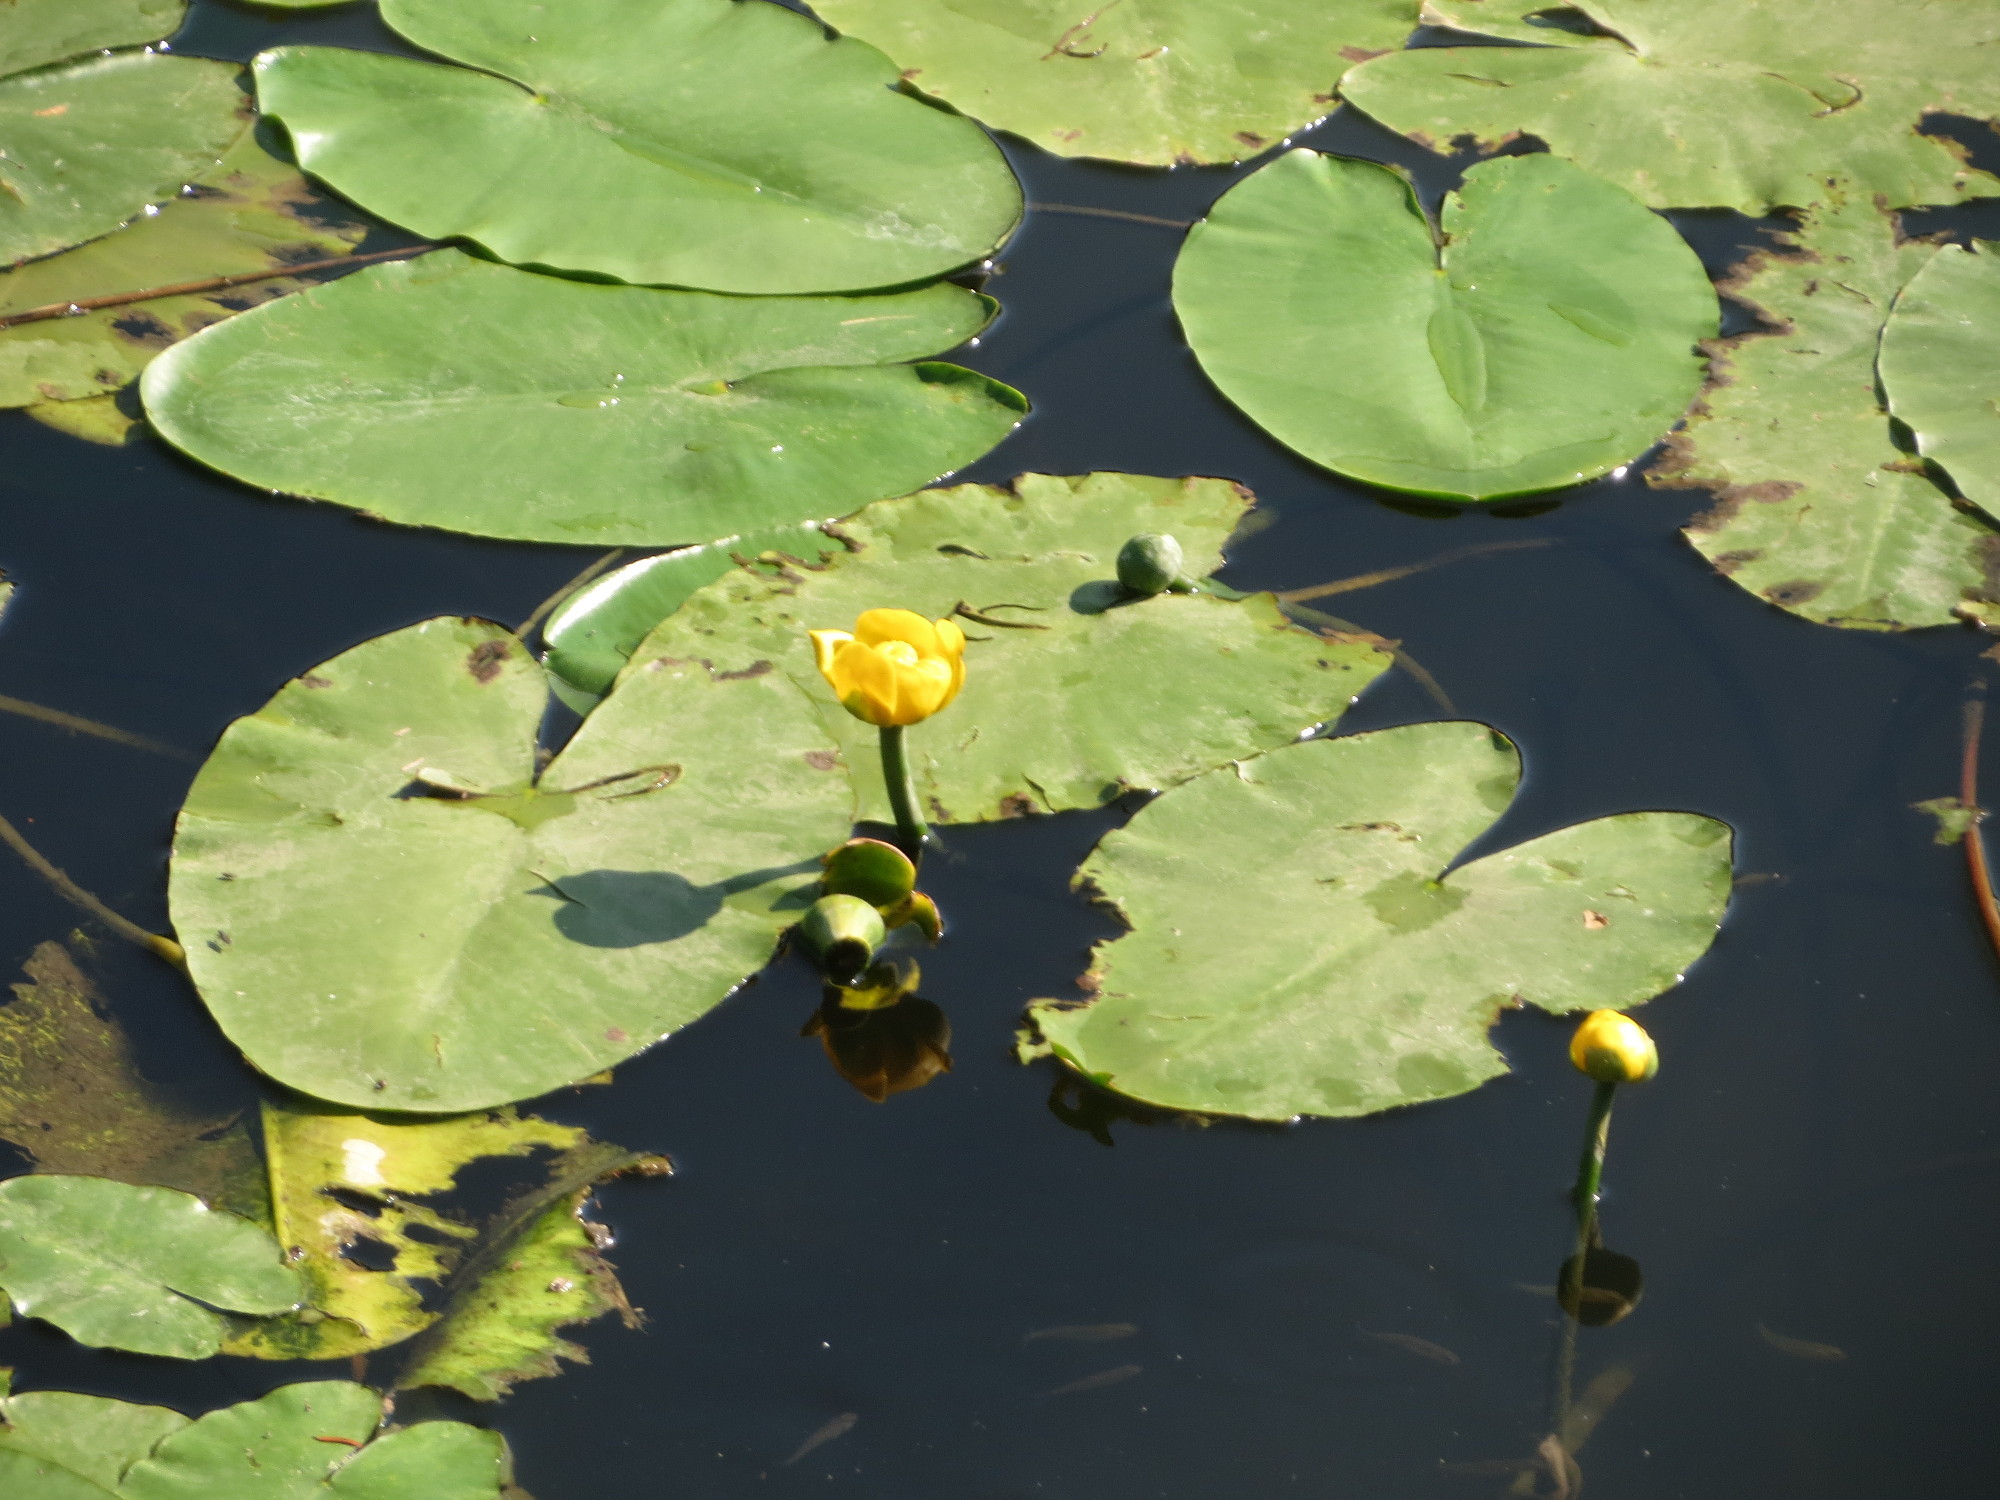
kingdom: Plantae
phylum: Tracheophyta
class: Magnoliopsida
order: Nymphaeales
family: Nymphaeaceae
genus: Nuphar
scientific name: Nuphar lutea
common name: Yellow water-lily
